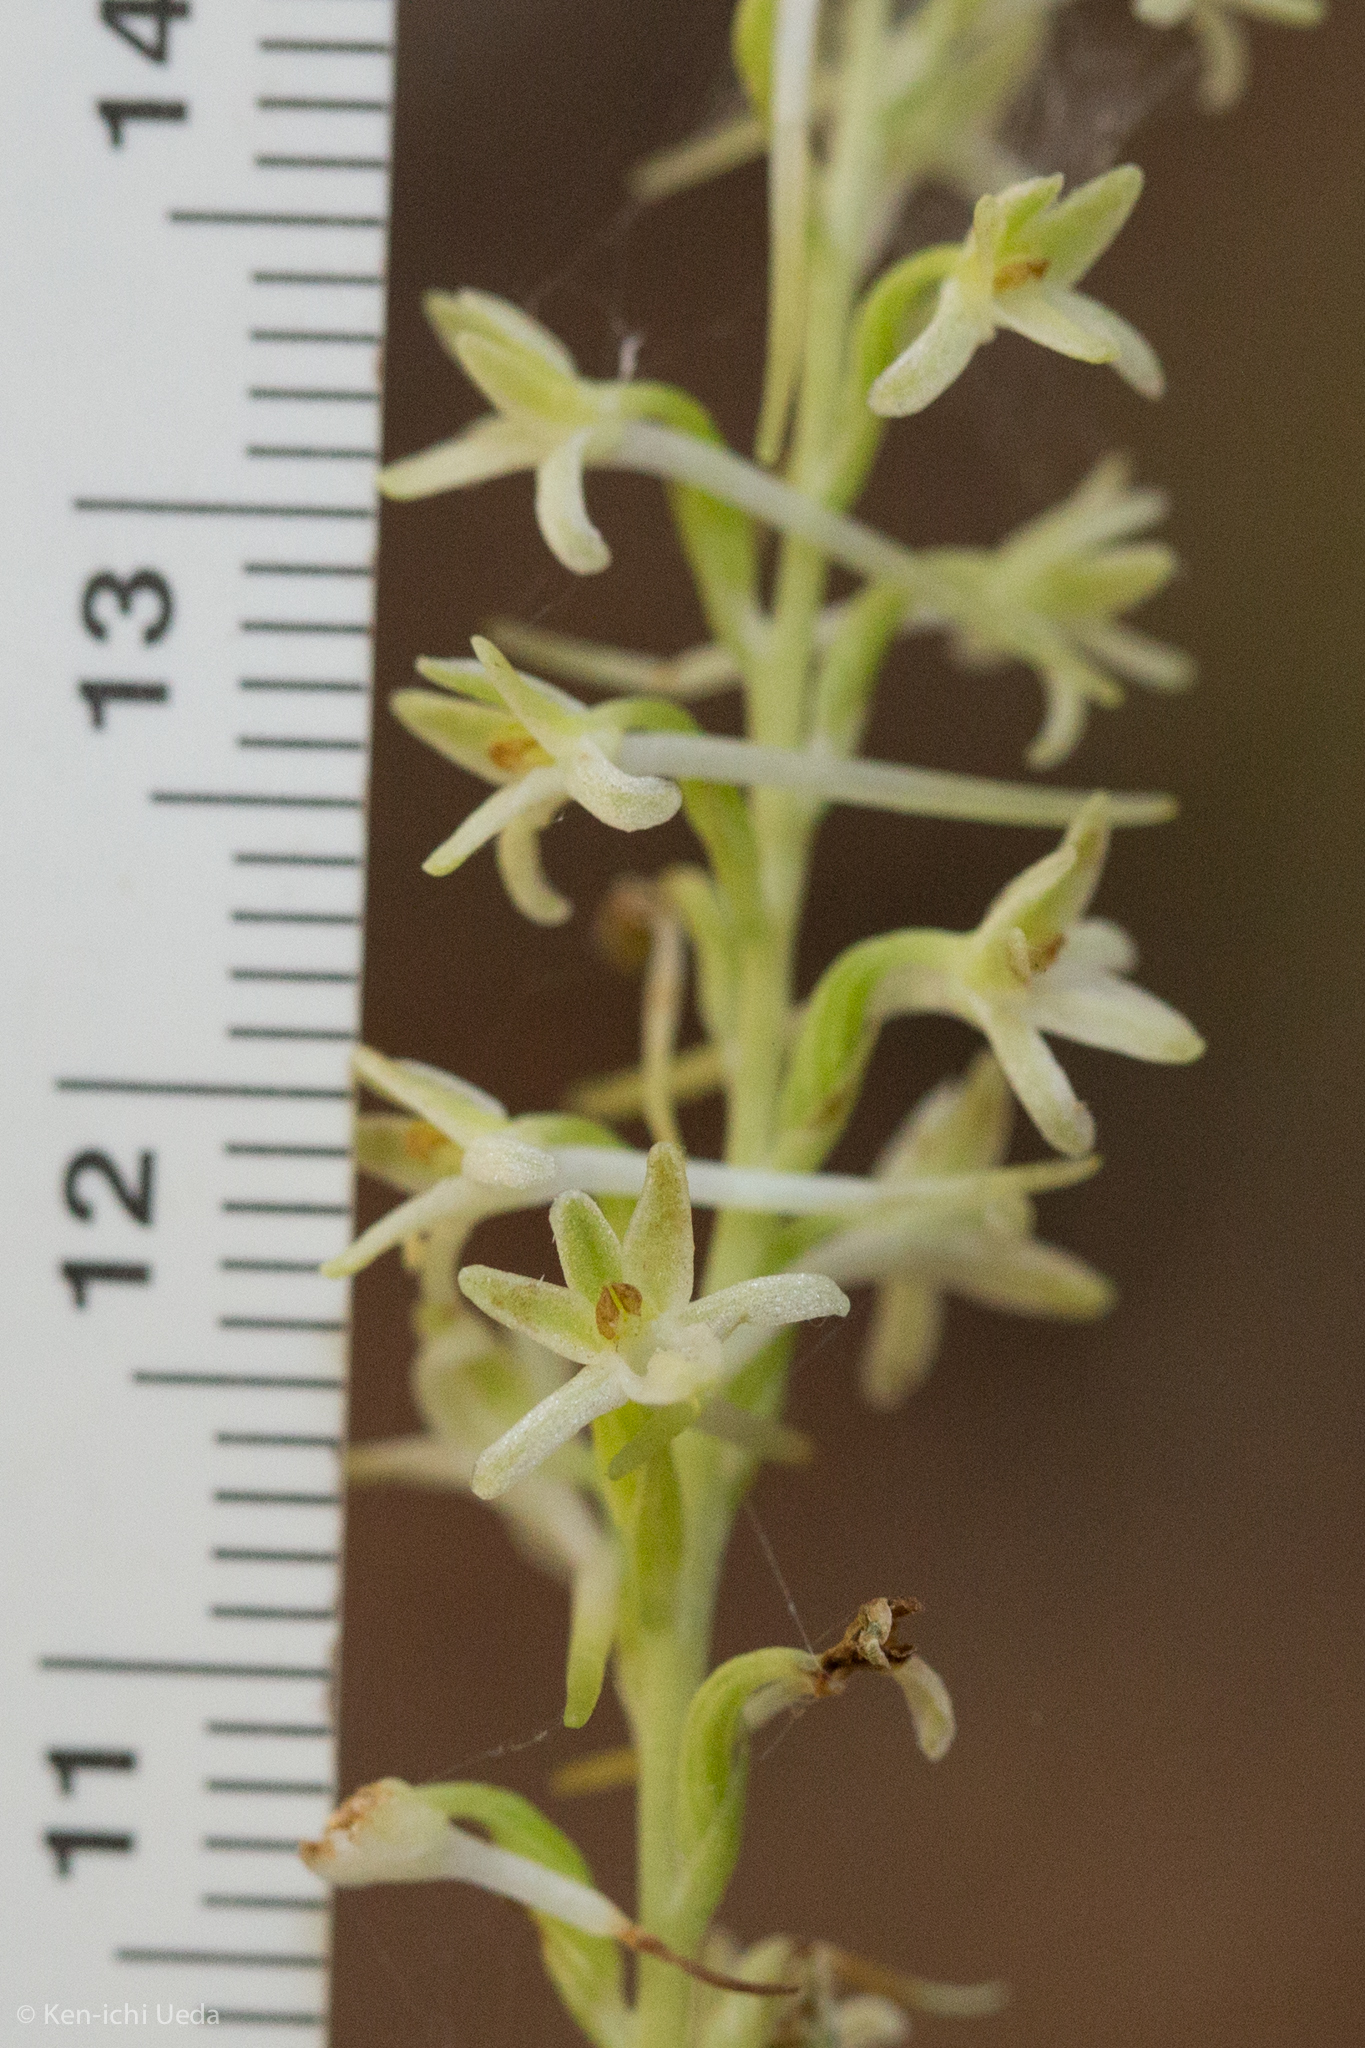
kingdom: Plantae
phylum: Tracheophyta
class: Liliopsida
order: Asparagales
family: Orchidaceae
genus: Platanthera
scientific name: Platanthera transversa
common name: Royal rein orchid
